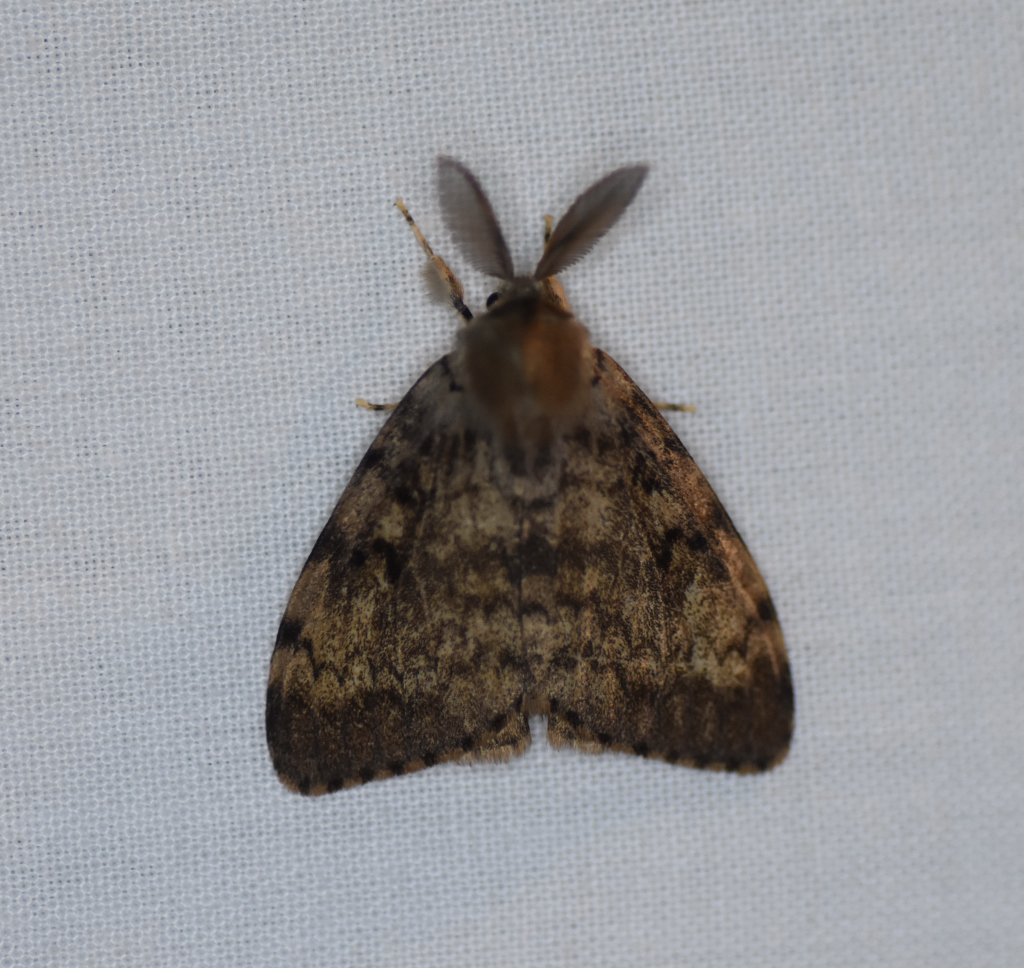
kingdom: Animalia
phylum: Arthropoda
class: Insecta
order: Lepidoptera
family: Erebidae
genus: Lymantria
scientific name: Lymantria dispar
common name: Gypsy moth
